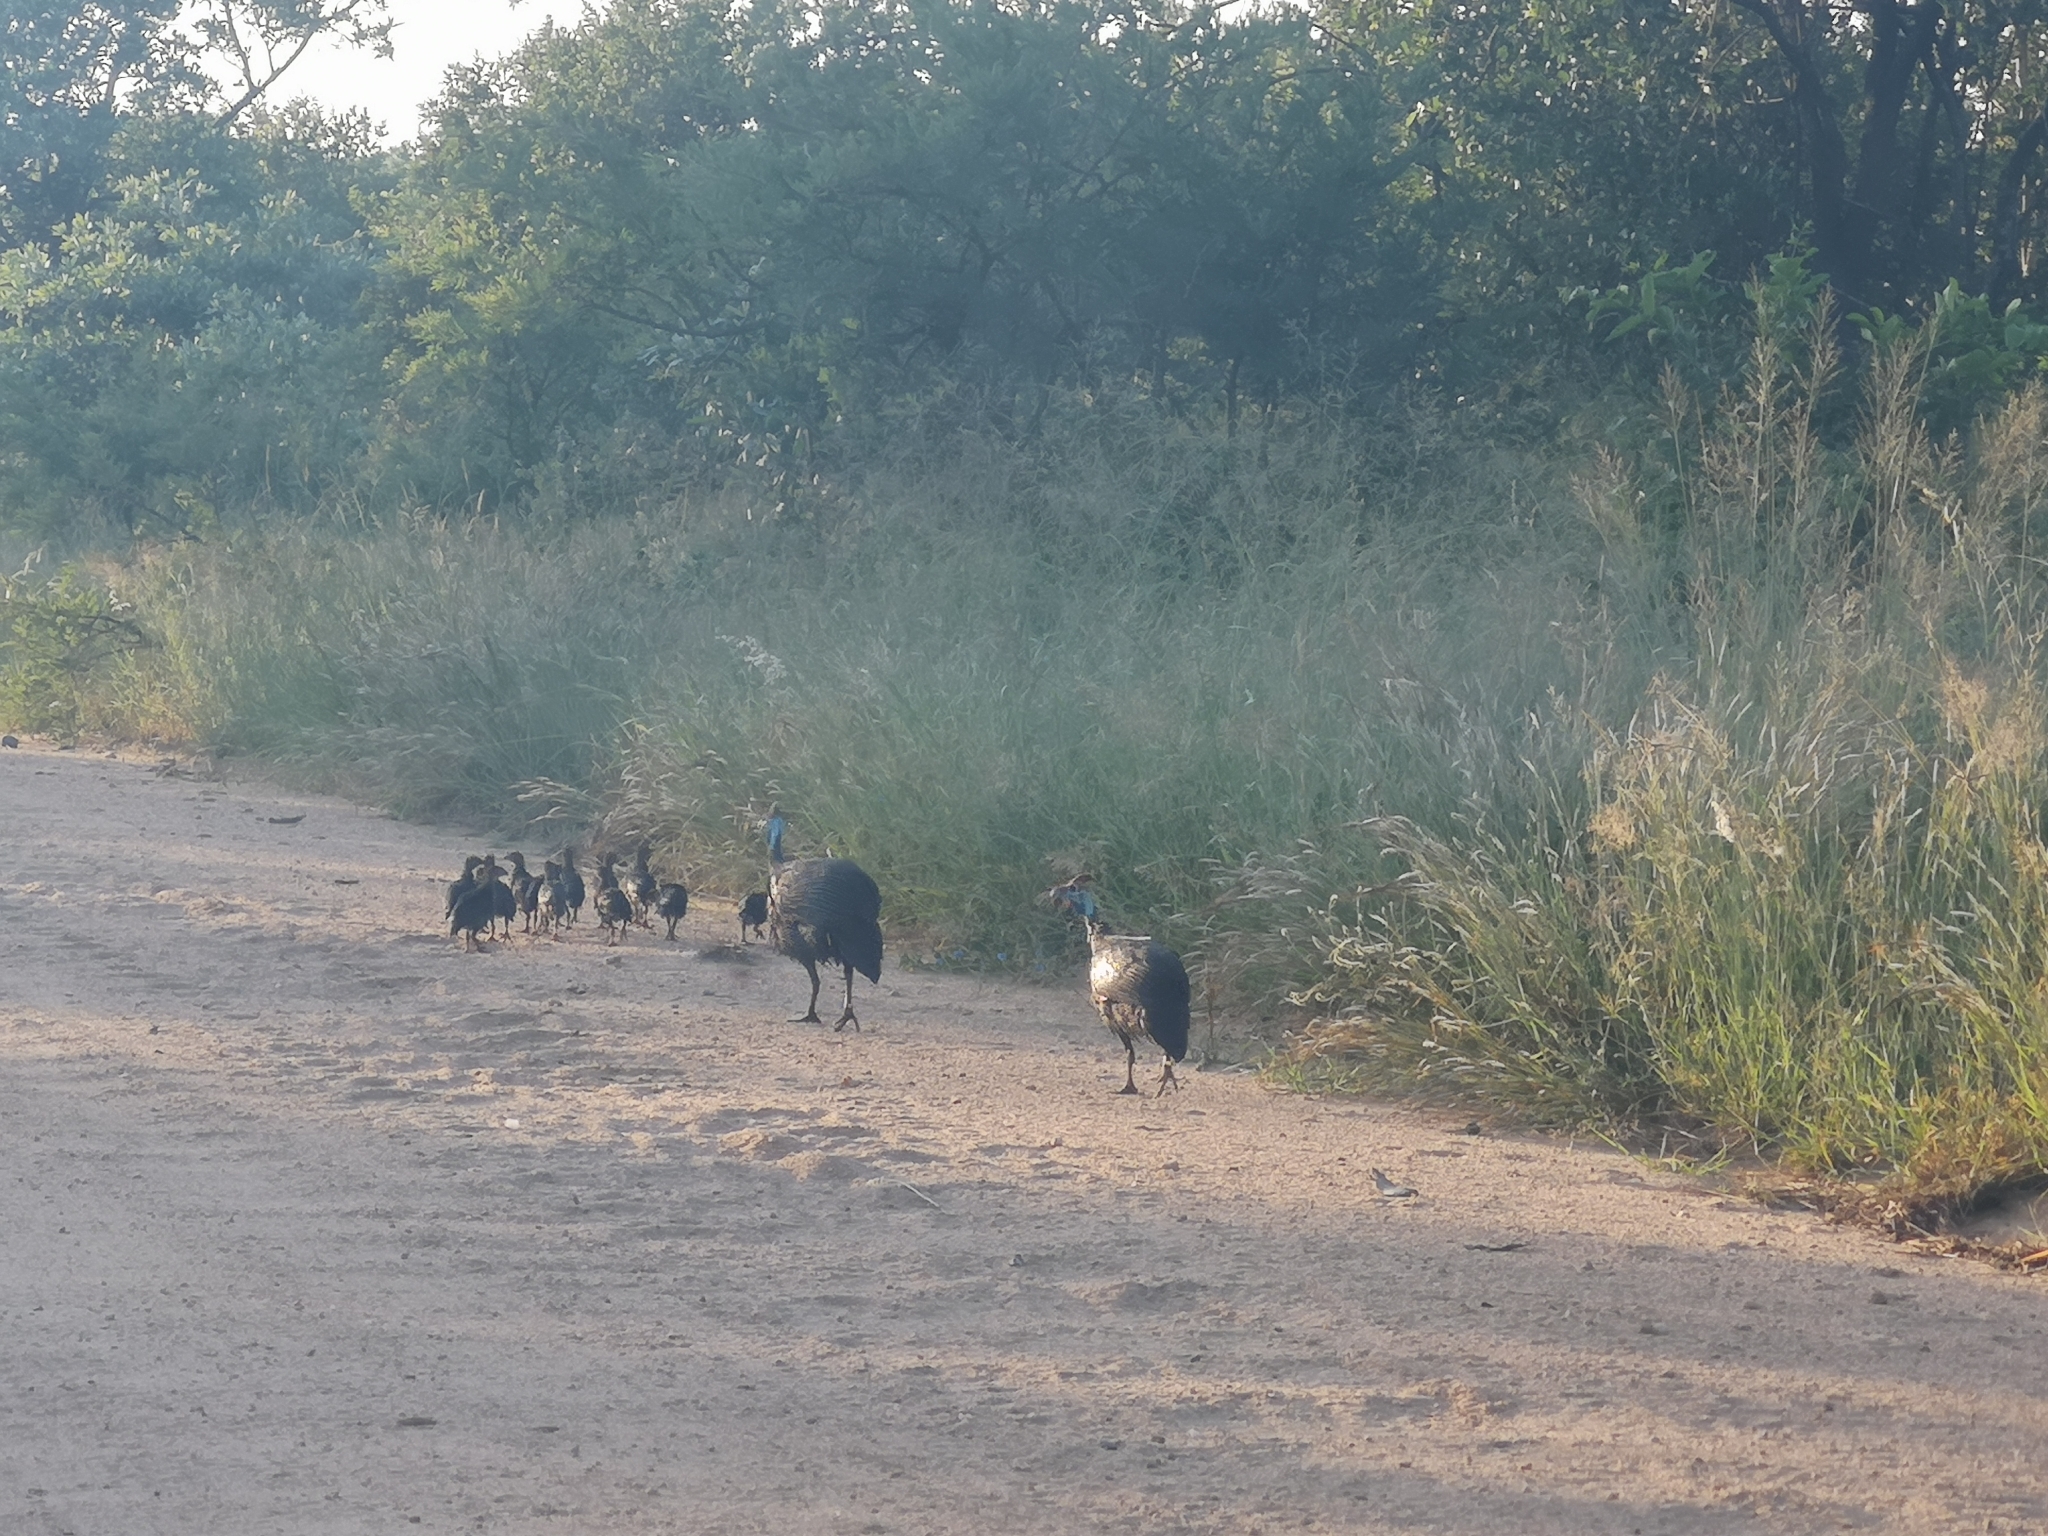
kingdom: Animalia
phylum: Chordata
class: Aves
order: Galliformes
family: Numididae
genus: Numida
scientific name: Numida meleagris
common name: Helmeted guineafowl
